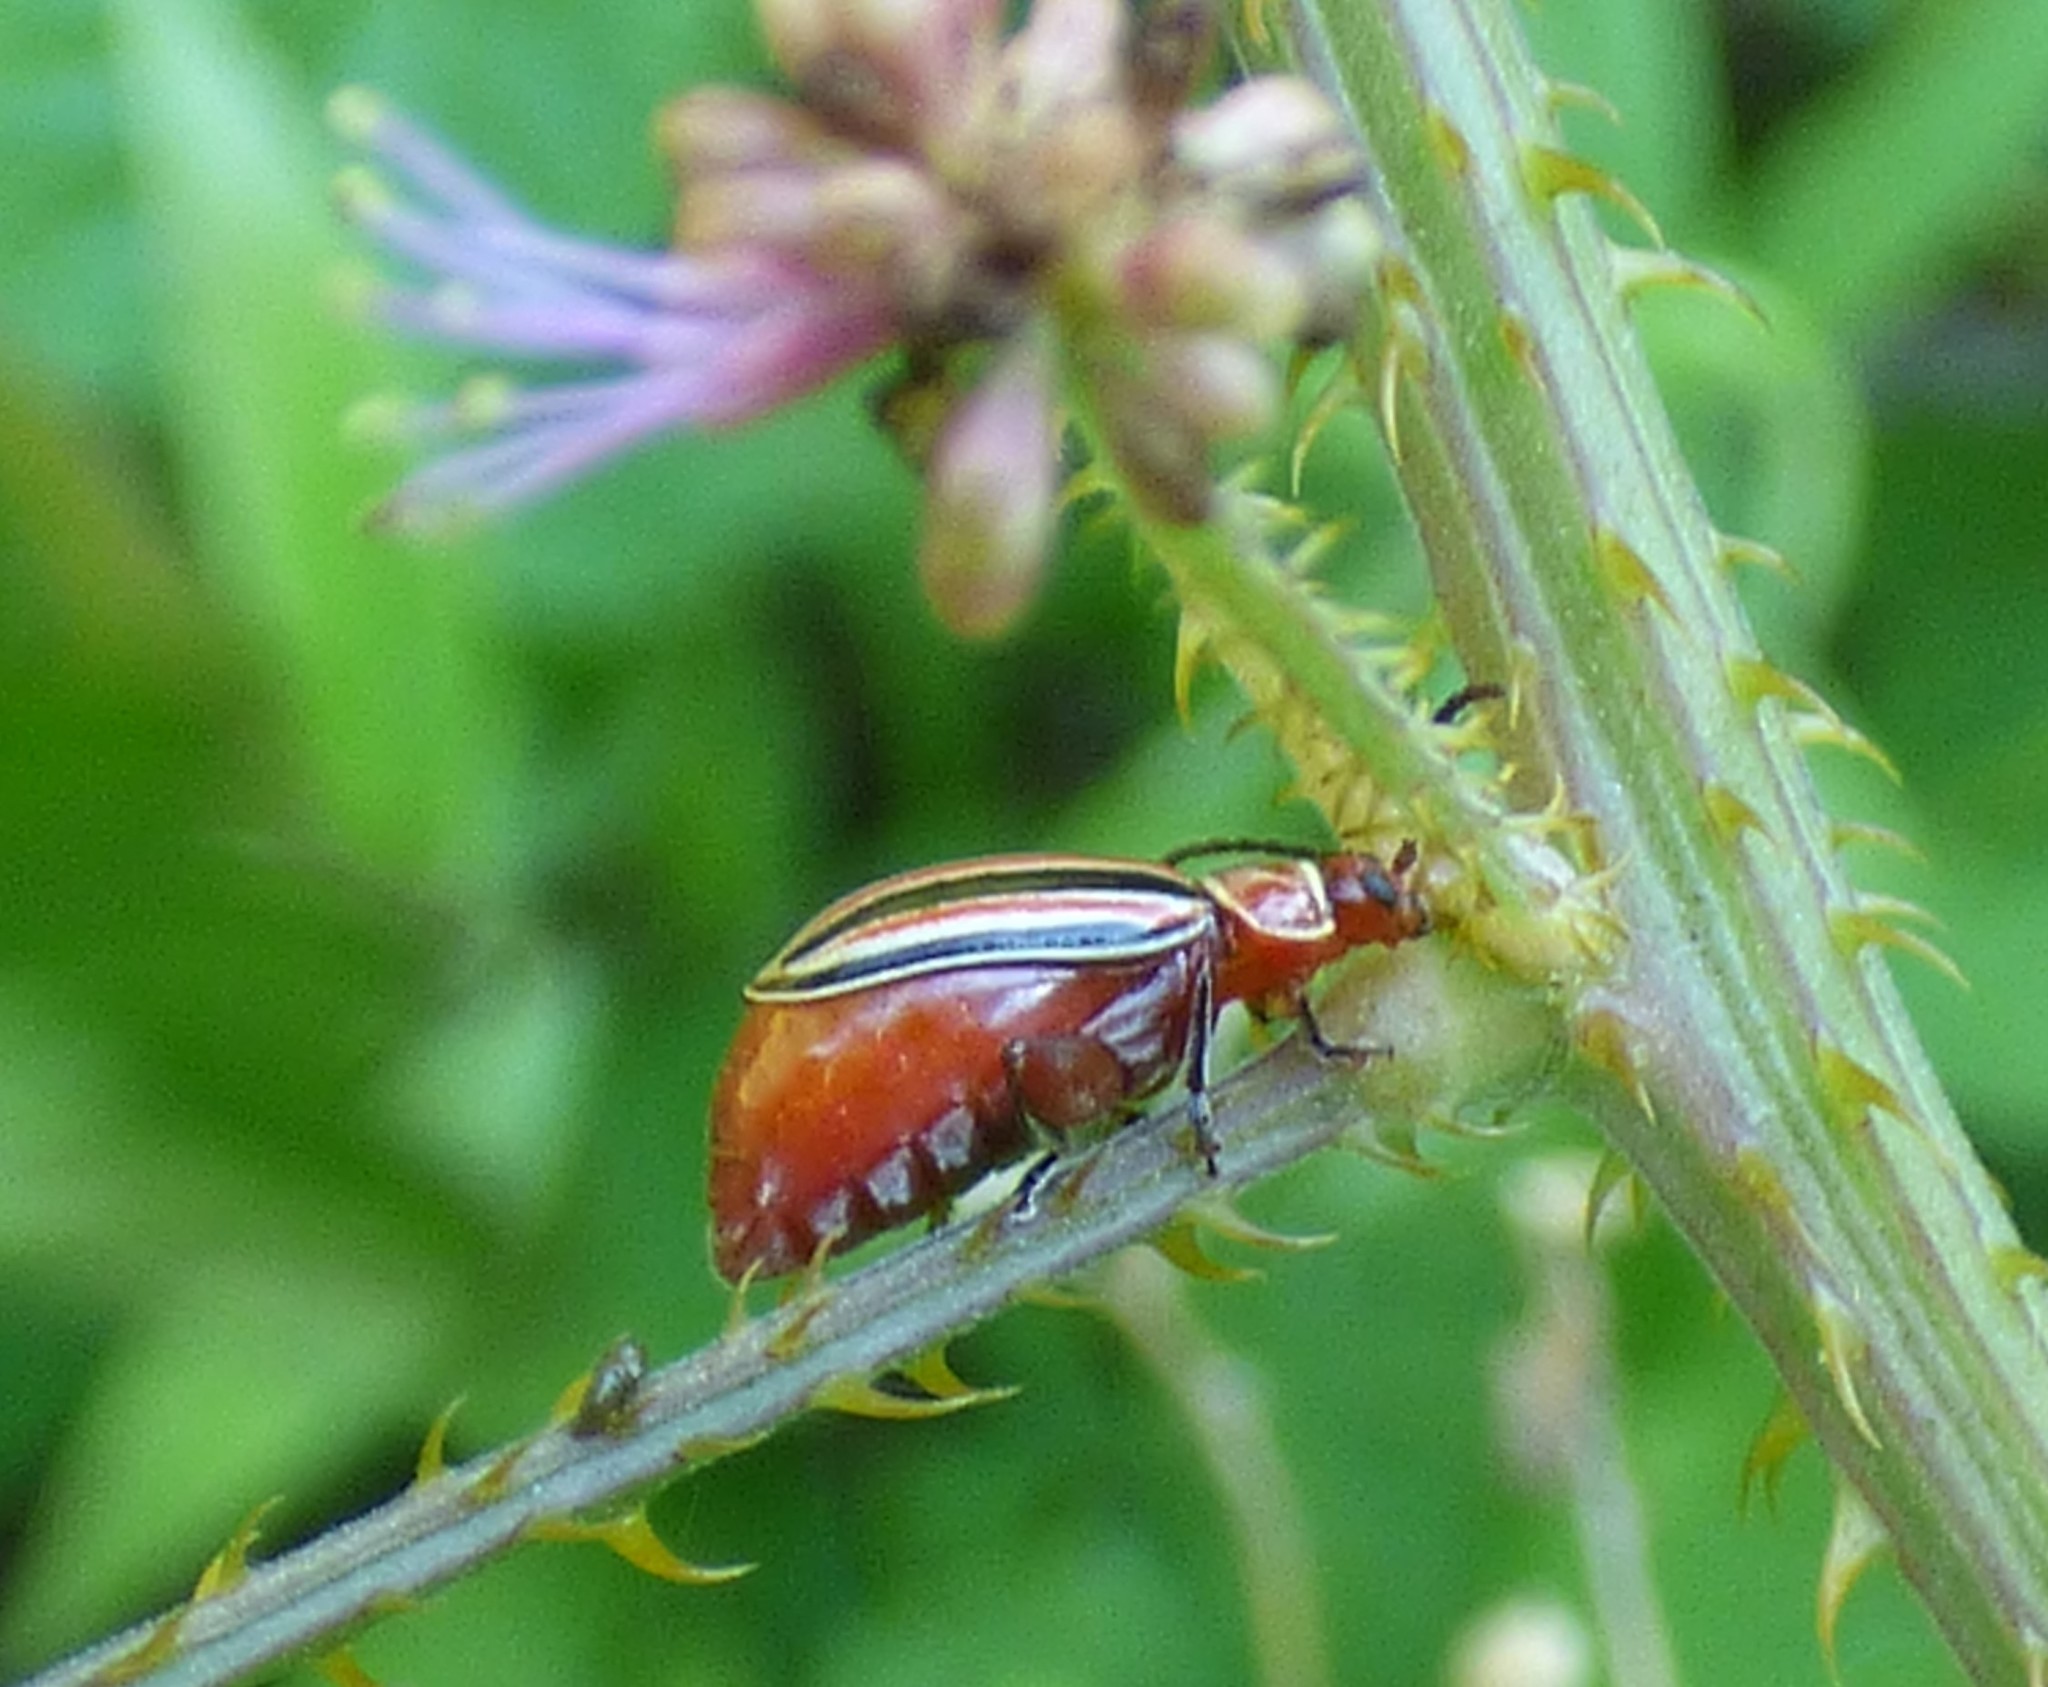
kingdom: Animalia
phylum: Arthropoda
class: Insecta
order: Coleoptera
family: Chrysomelidae
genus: Disonycha
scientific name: Disonycha caroliniana
